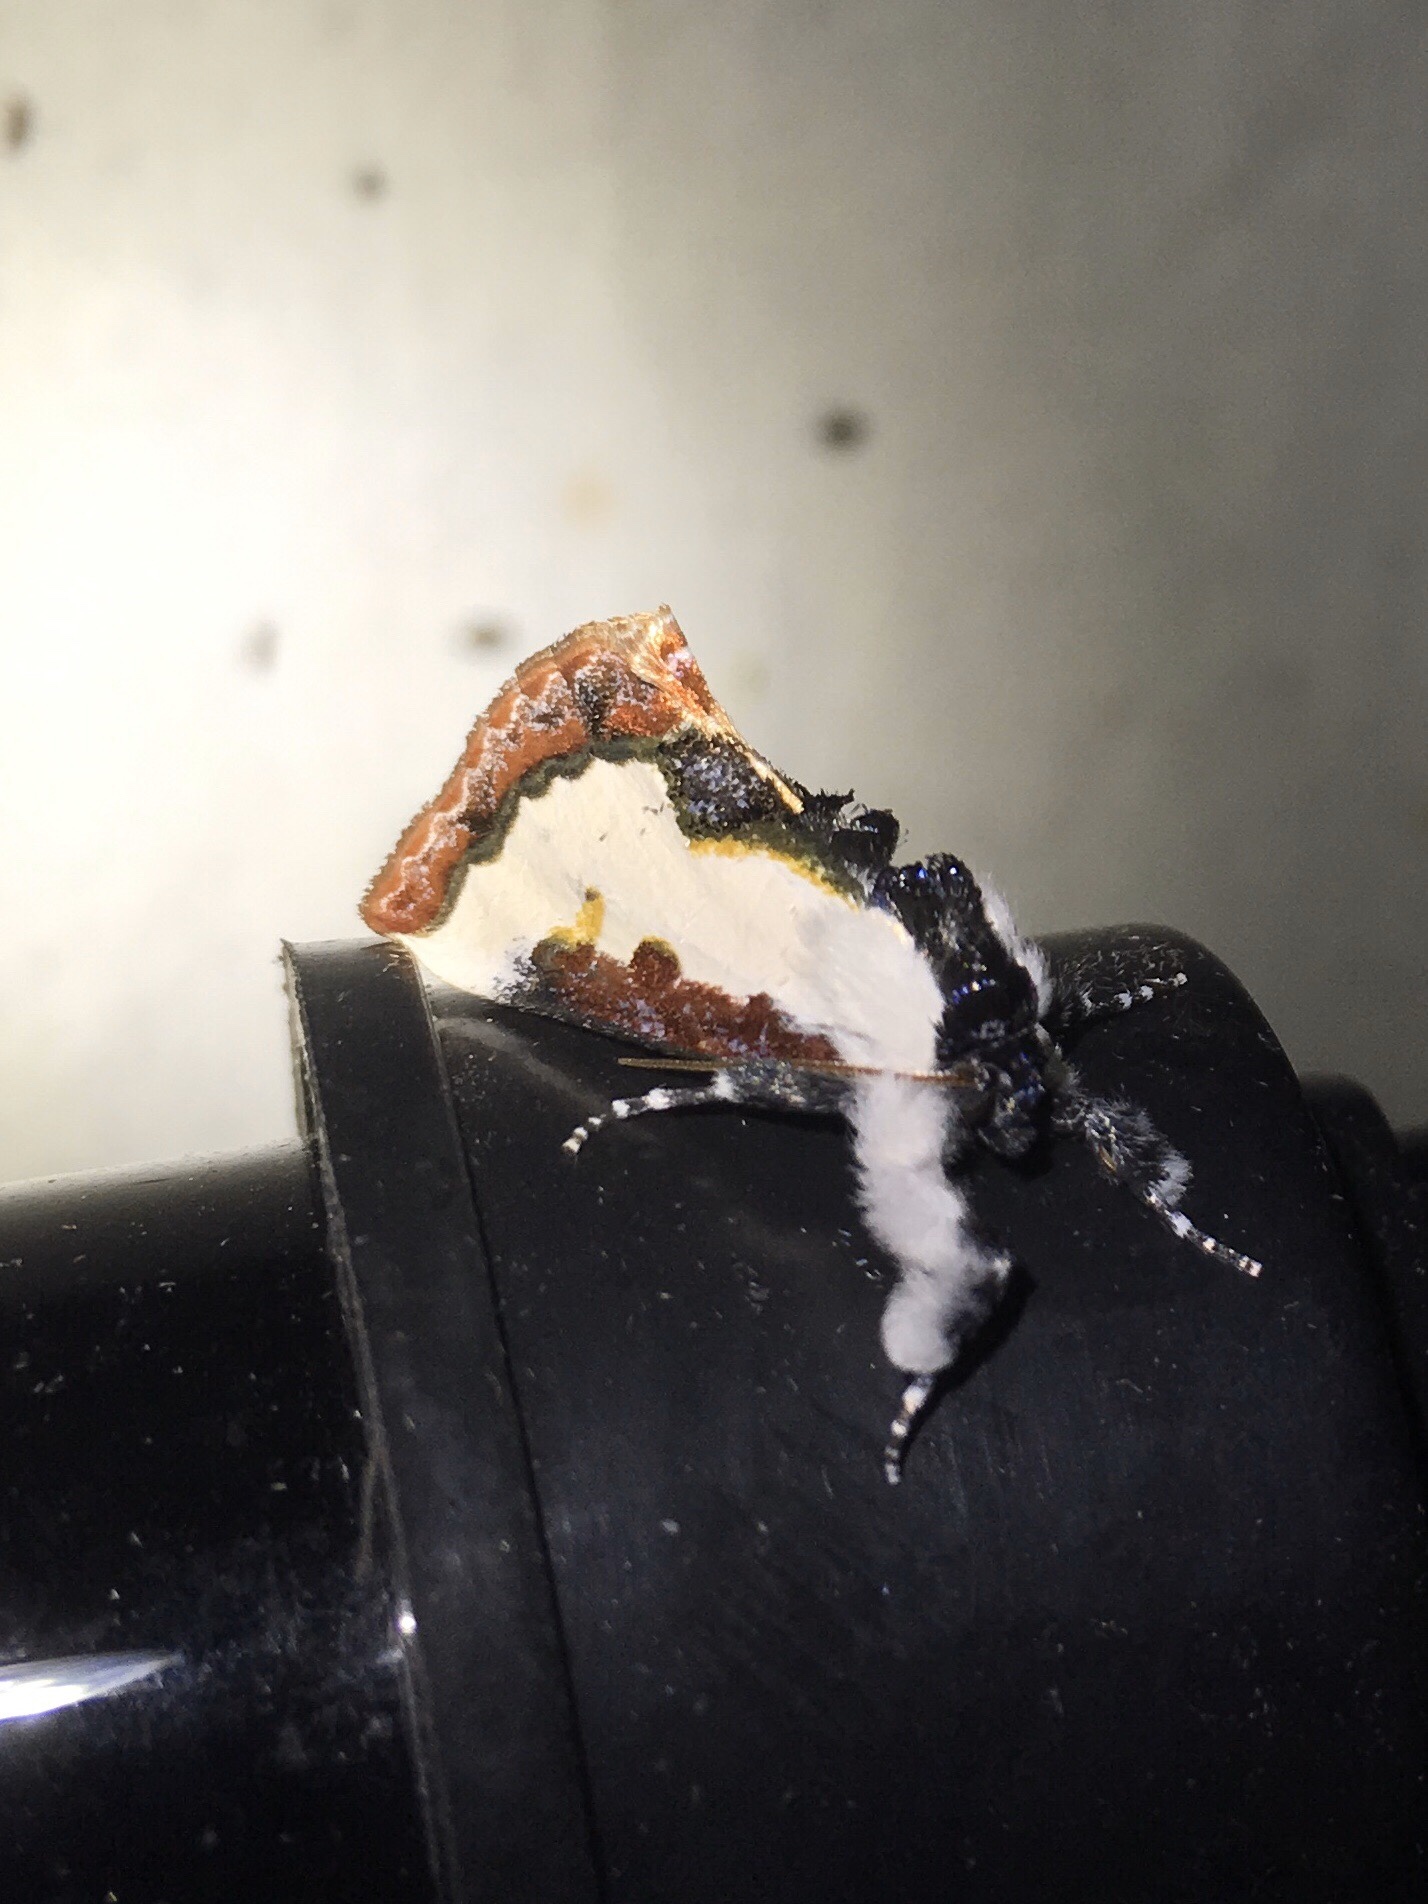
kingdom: Animalia
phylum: Arthropoda
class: Insecta
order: Lepidoptera
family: Noctuidae
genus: Eudryas
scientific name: Eudryas unio
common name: Pearly wood-nymph
